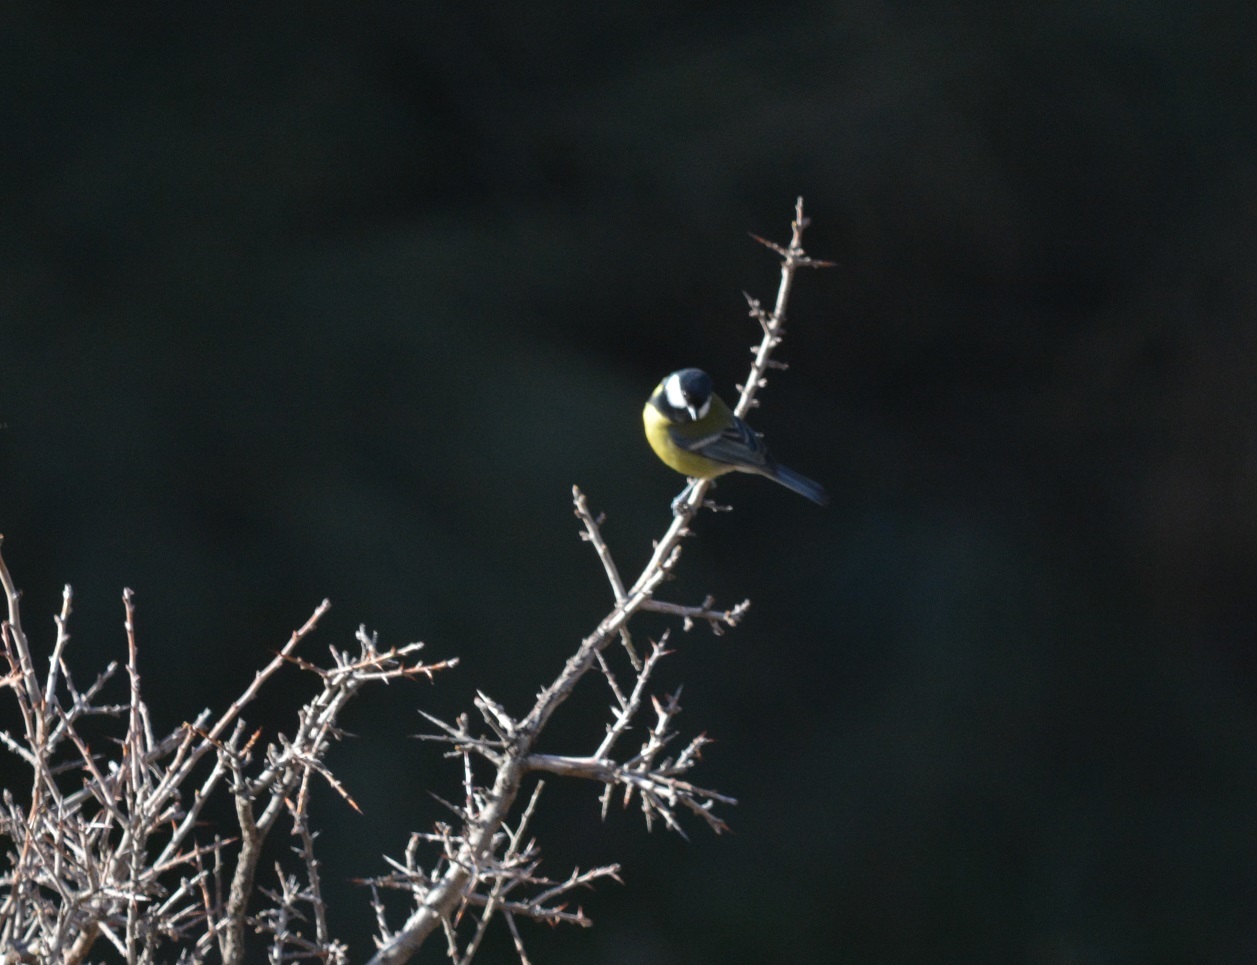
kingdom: Animalia
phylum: Chordata
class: Aves
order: Passeriformes
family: Paridae
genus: Parus
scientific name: Parus major
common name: Great tit
